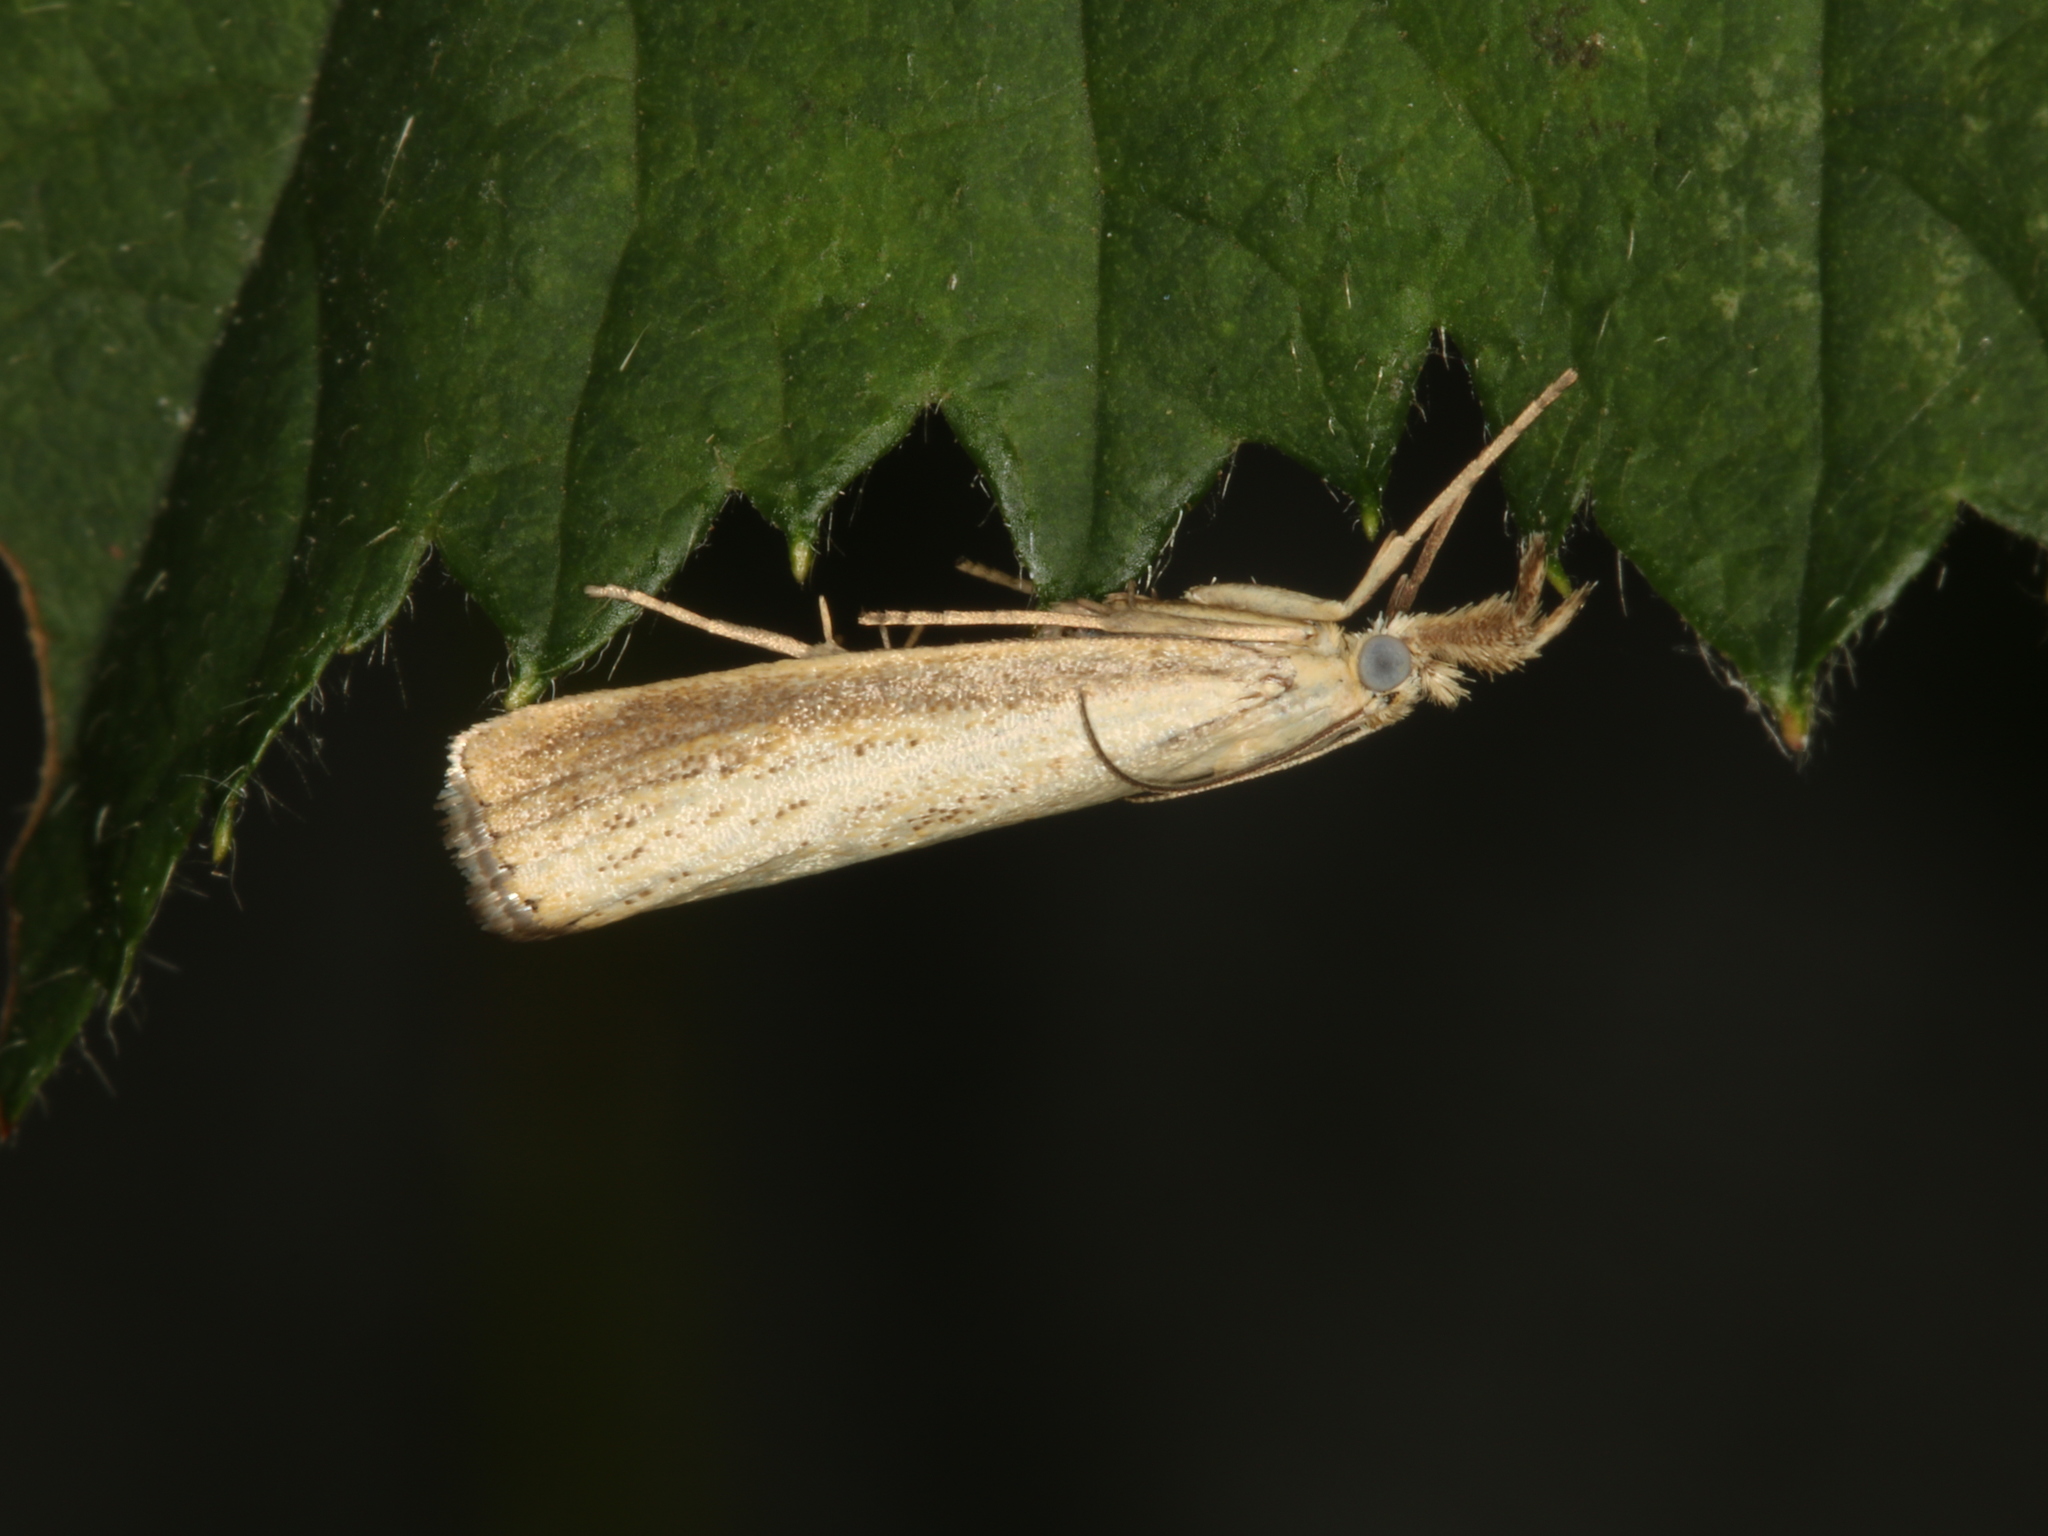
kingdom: Animalia
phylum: Arthropoda
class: Insecta
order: Lepidoptera
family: Crambidae
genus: Agriphila
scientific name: Agriphila straminella
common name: Straw grass-veneer
